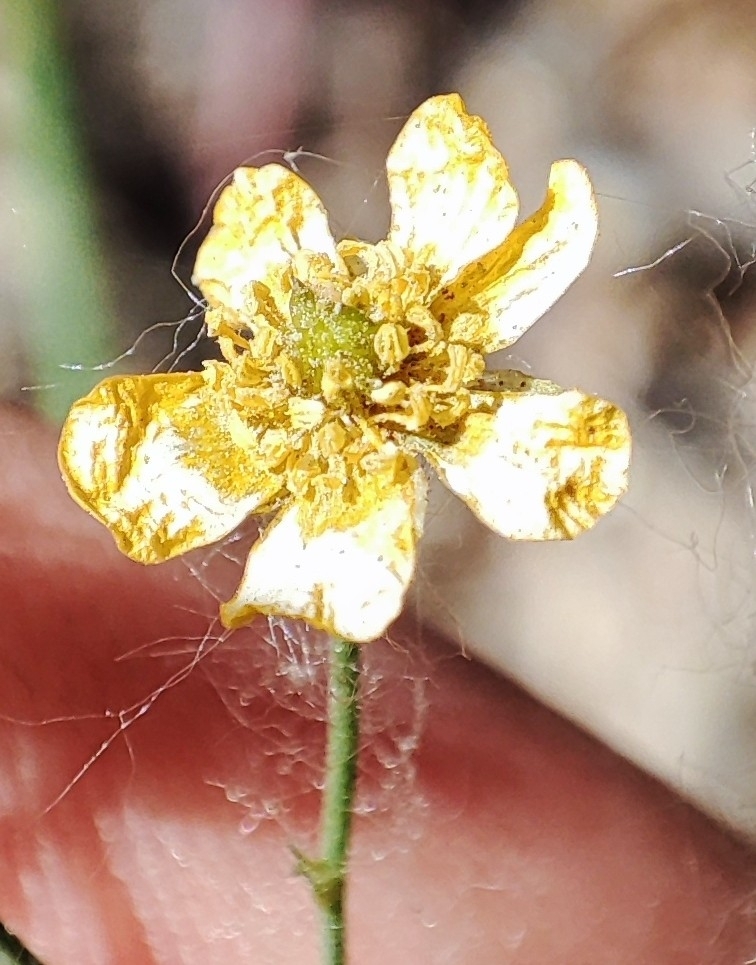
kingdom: Plantae
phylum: Tracheophyta
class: Magnoliopsida
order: Ranunculales
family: Ranunculaceae
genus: Ranunculus
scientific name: Ranunculus acris
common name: Meadow buttercup
